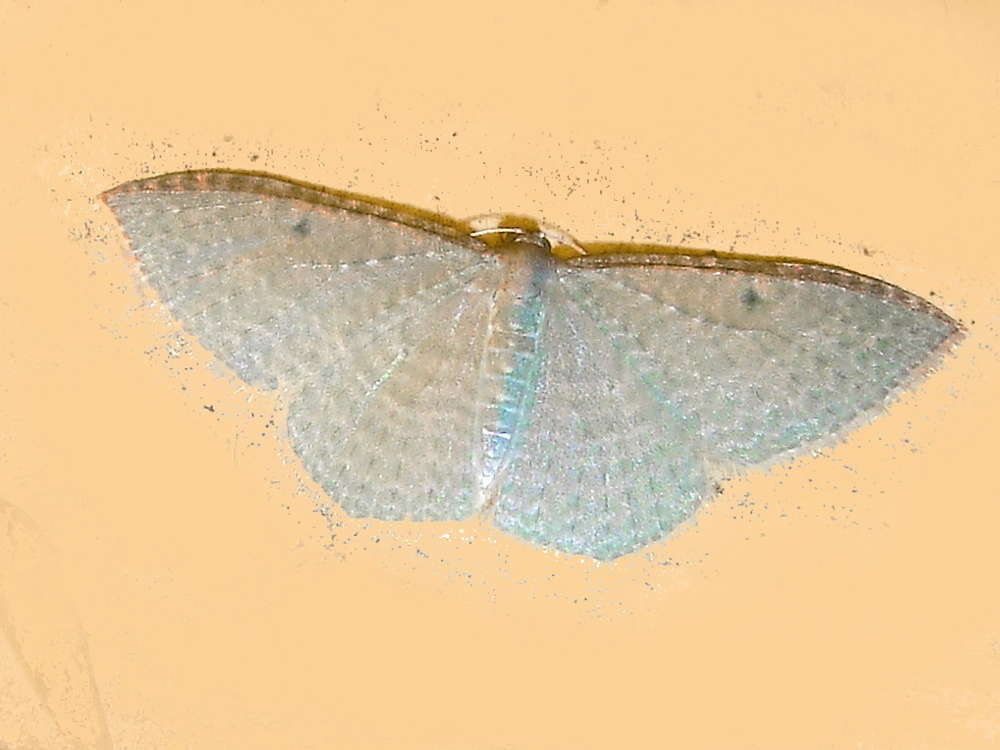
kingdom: Animalia
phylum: Arthropoda
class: Insecta
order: Lepidoptera
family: Geometridae
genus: Poecilasthena
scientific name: Poecilasthena pulchraria
